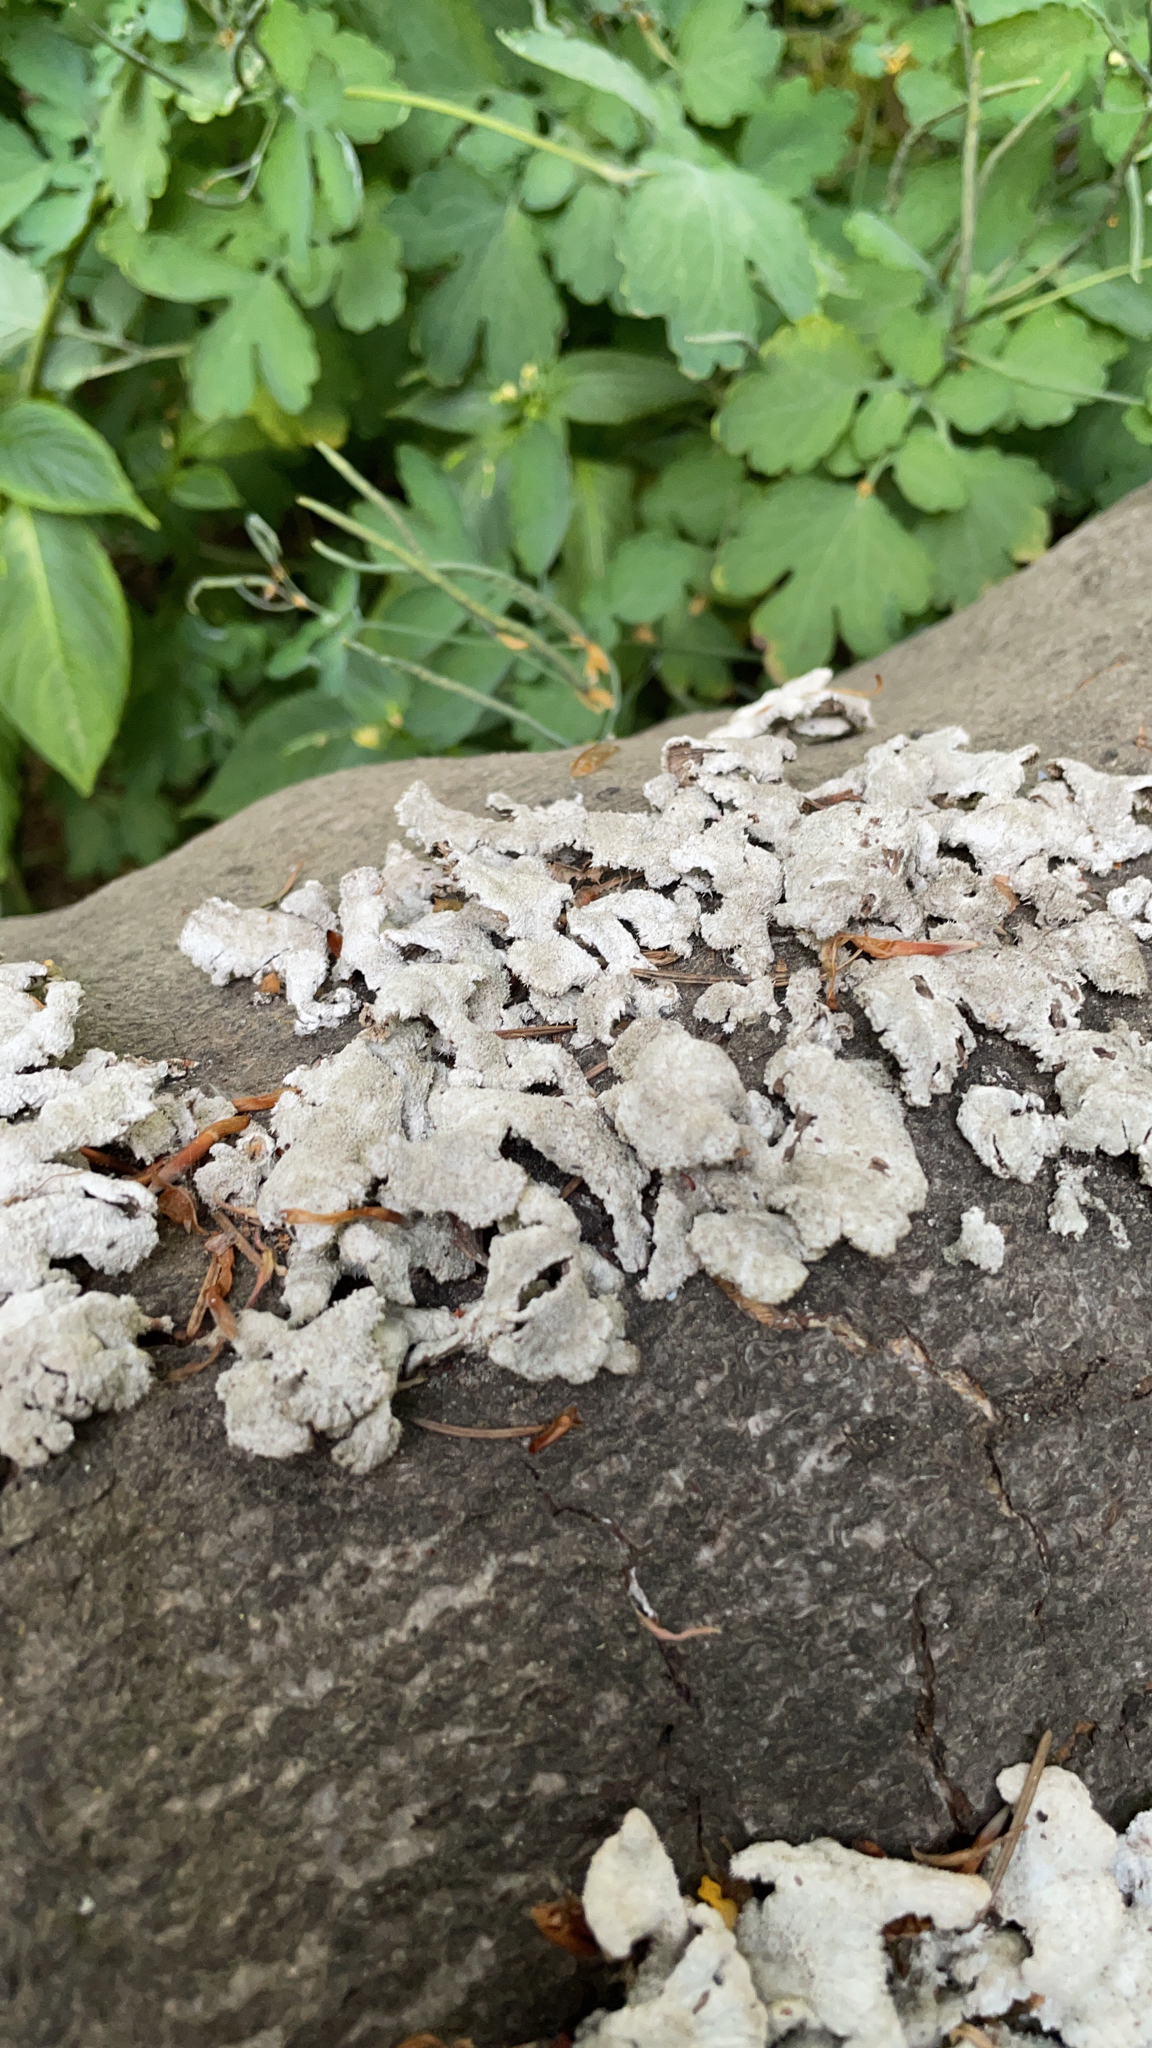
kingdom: Fungi
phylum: Basidiomycota
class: Agaricomycetes
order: Agaricales
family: Schizophyllaceae
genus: Schizophyllum
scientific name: Schizophyllum commune
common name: Common porecrust
